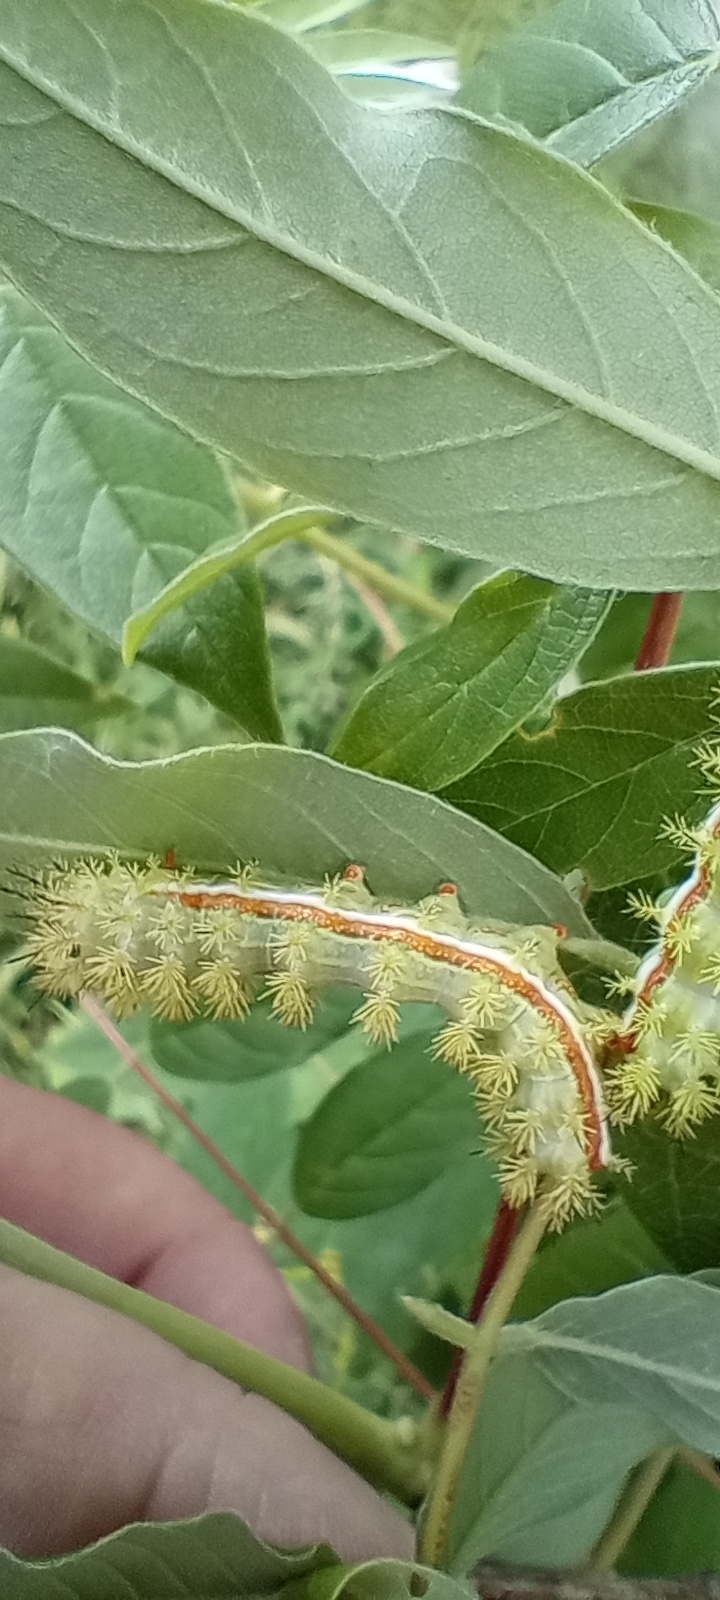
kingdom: Animalia
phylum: Arthropoda
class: Insecta
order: Lepidoptera
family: Saturniidae
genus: Automeris
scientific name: Automeris io
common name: Io moth
